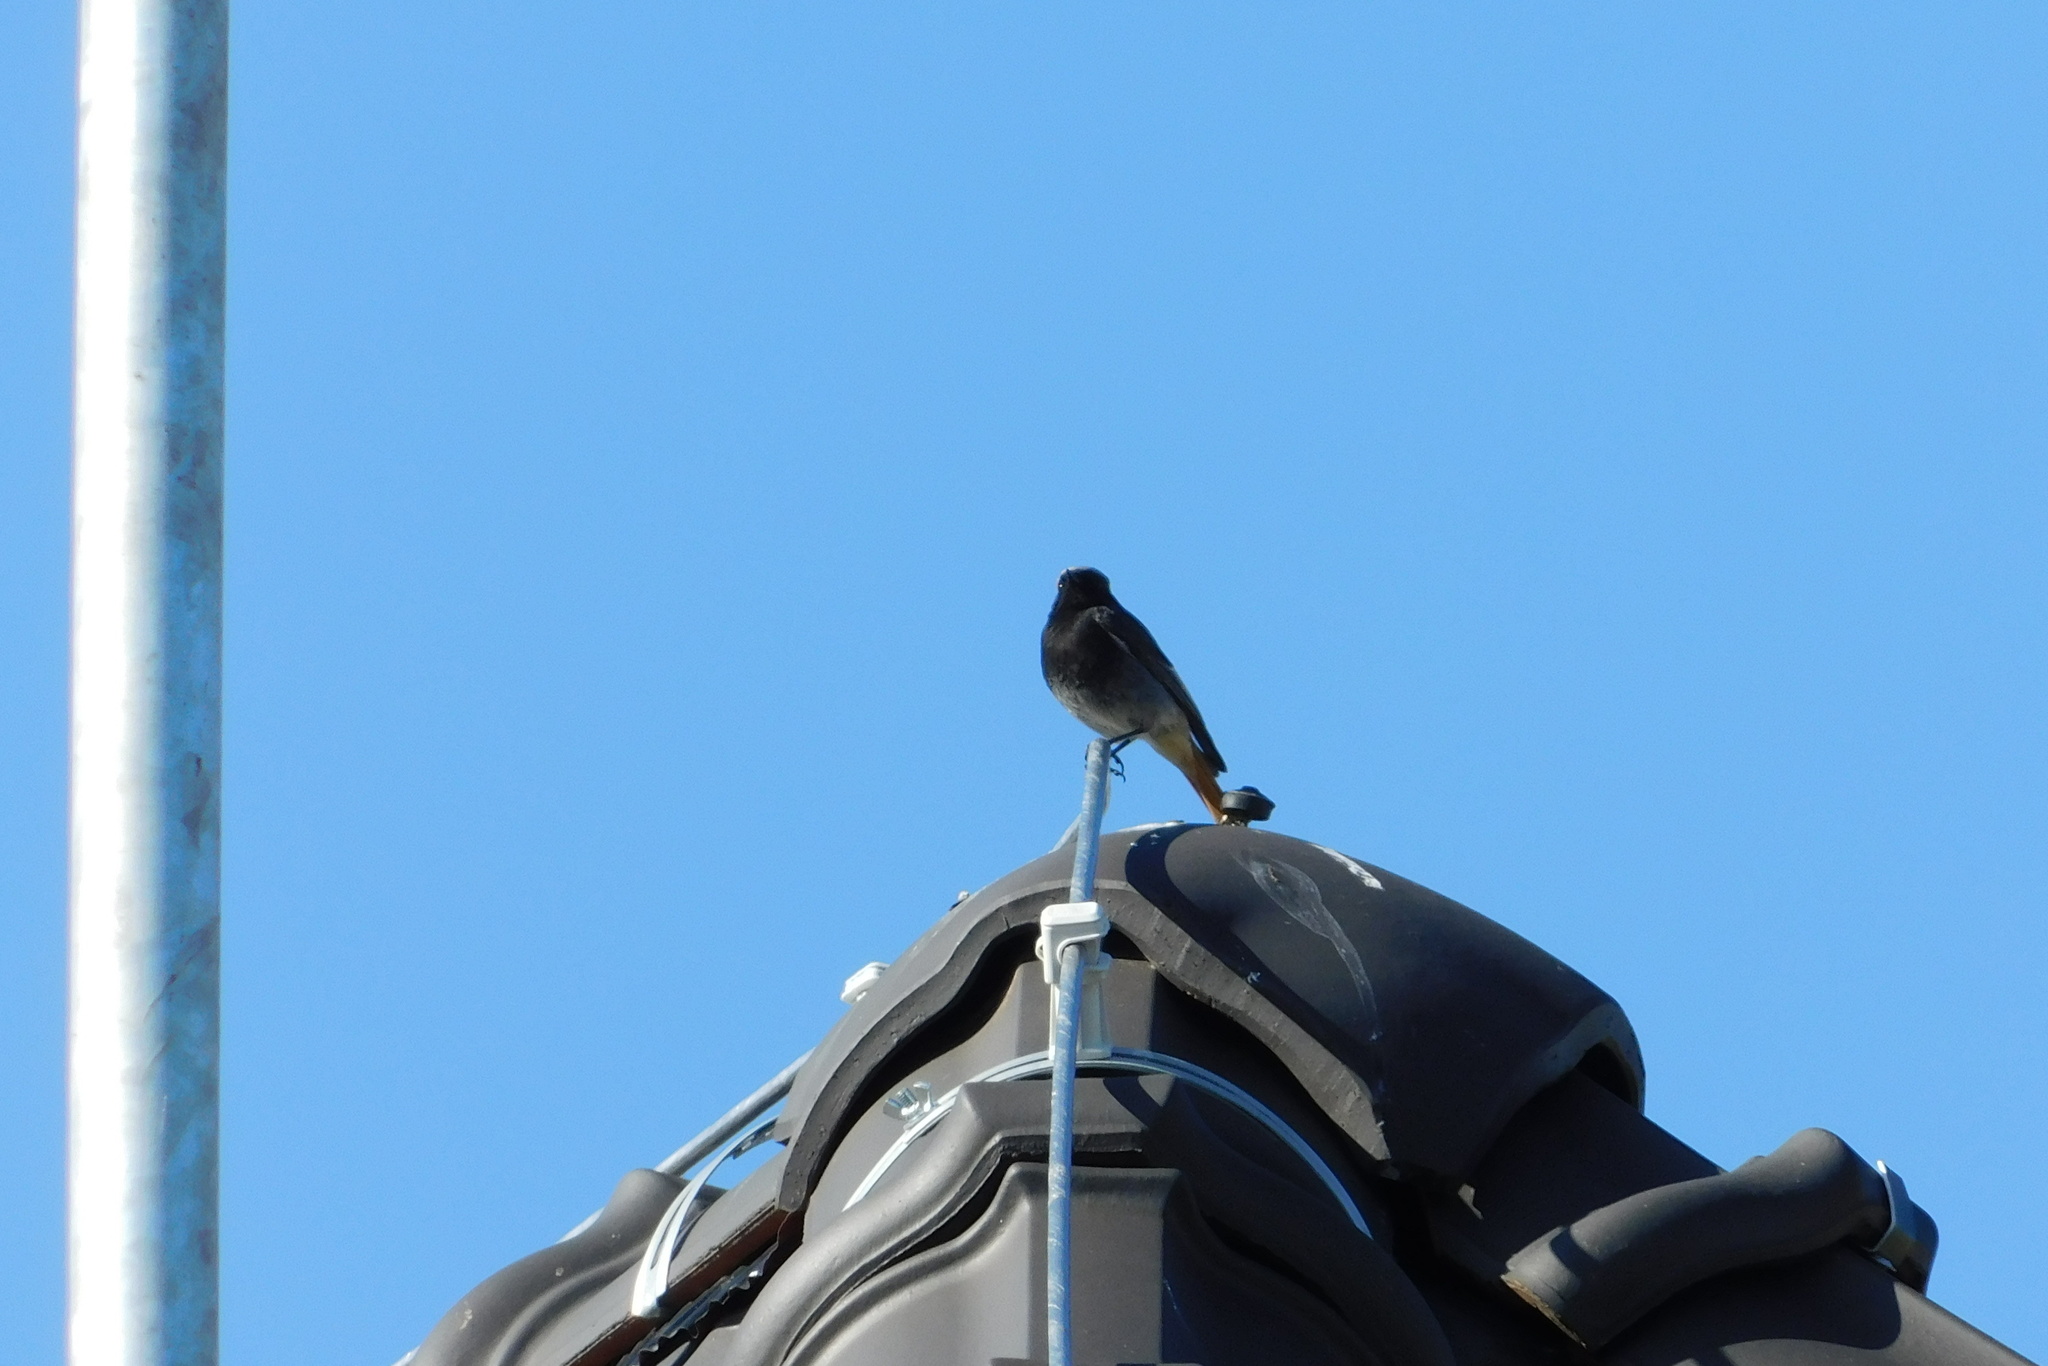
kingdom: Animalia
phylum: Chordata
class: Aves
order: Passeriformes
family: Muscicapidae
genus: Phoenicurus
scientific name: Phoenicurus ochruros
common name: Black redstart
